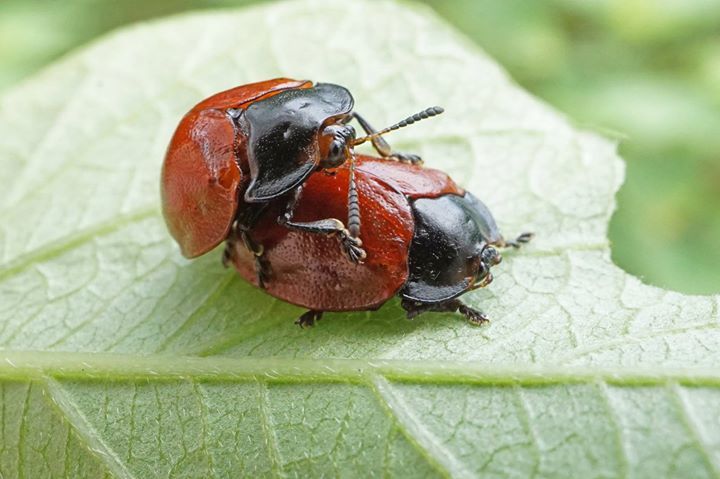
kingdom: Animalia
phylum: Arthropoda
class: Insecta
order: Coleoptera
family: Chrysomelidae
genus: Chelymorpha
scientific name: Chelymorpha cribraria
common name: Tortoise beetle
